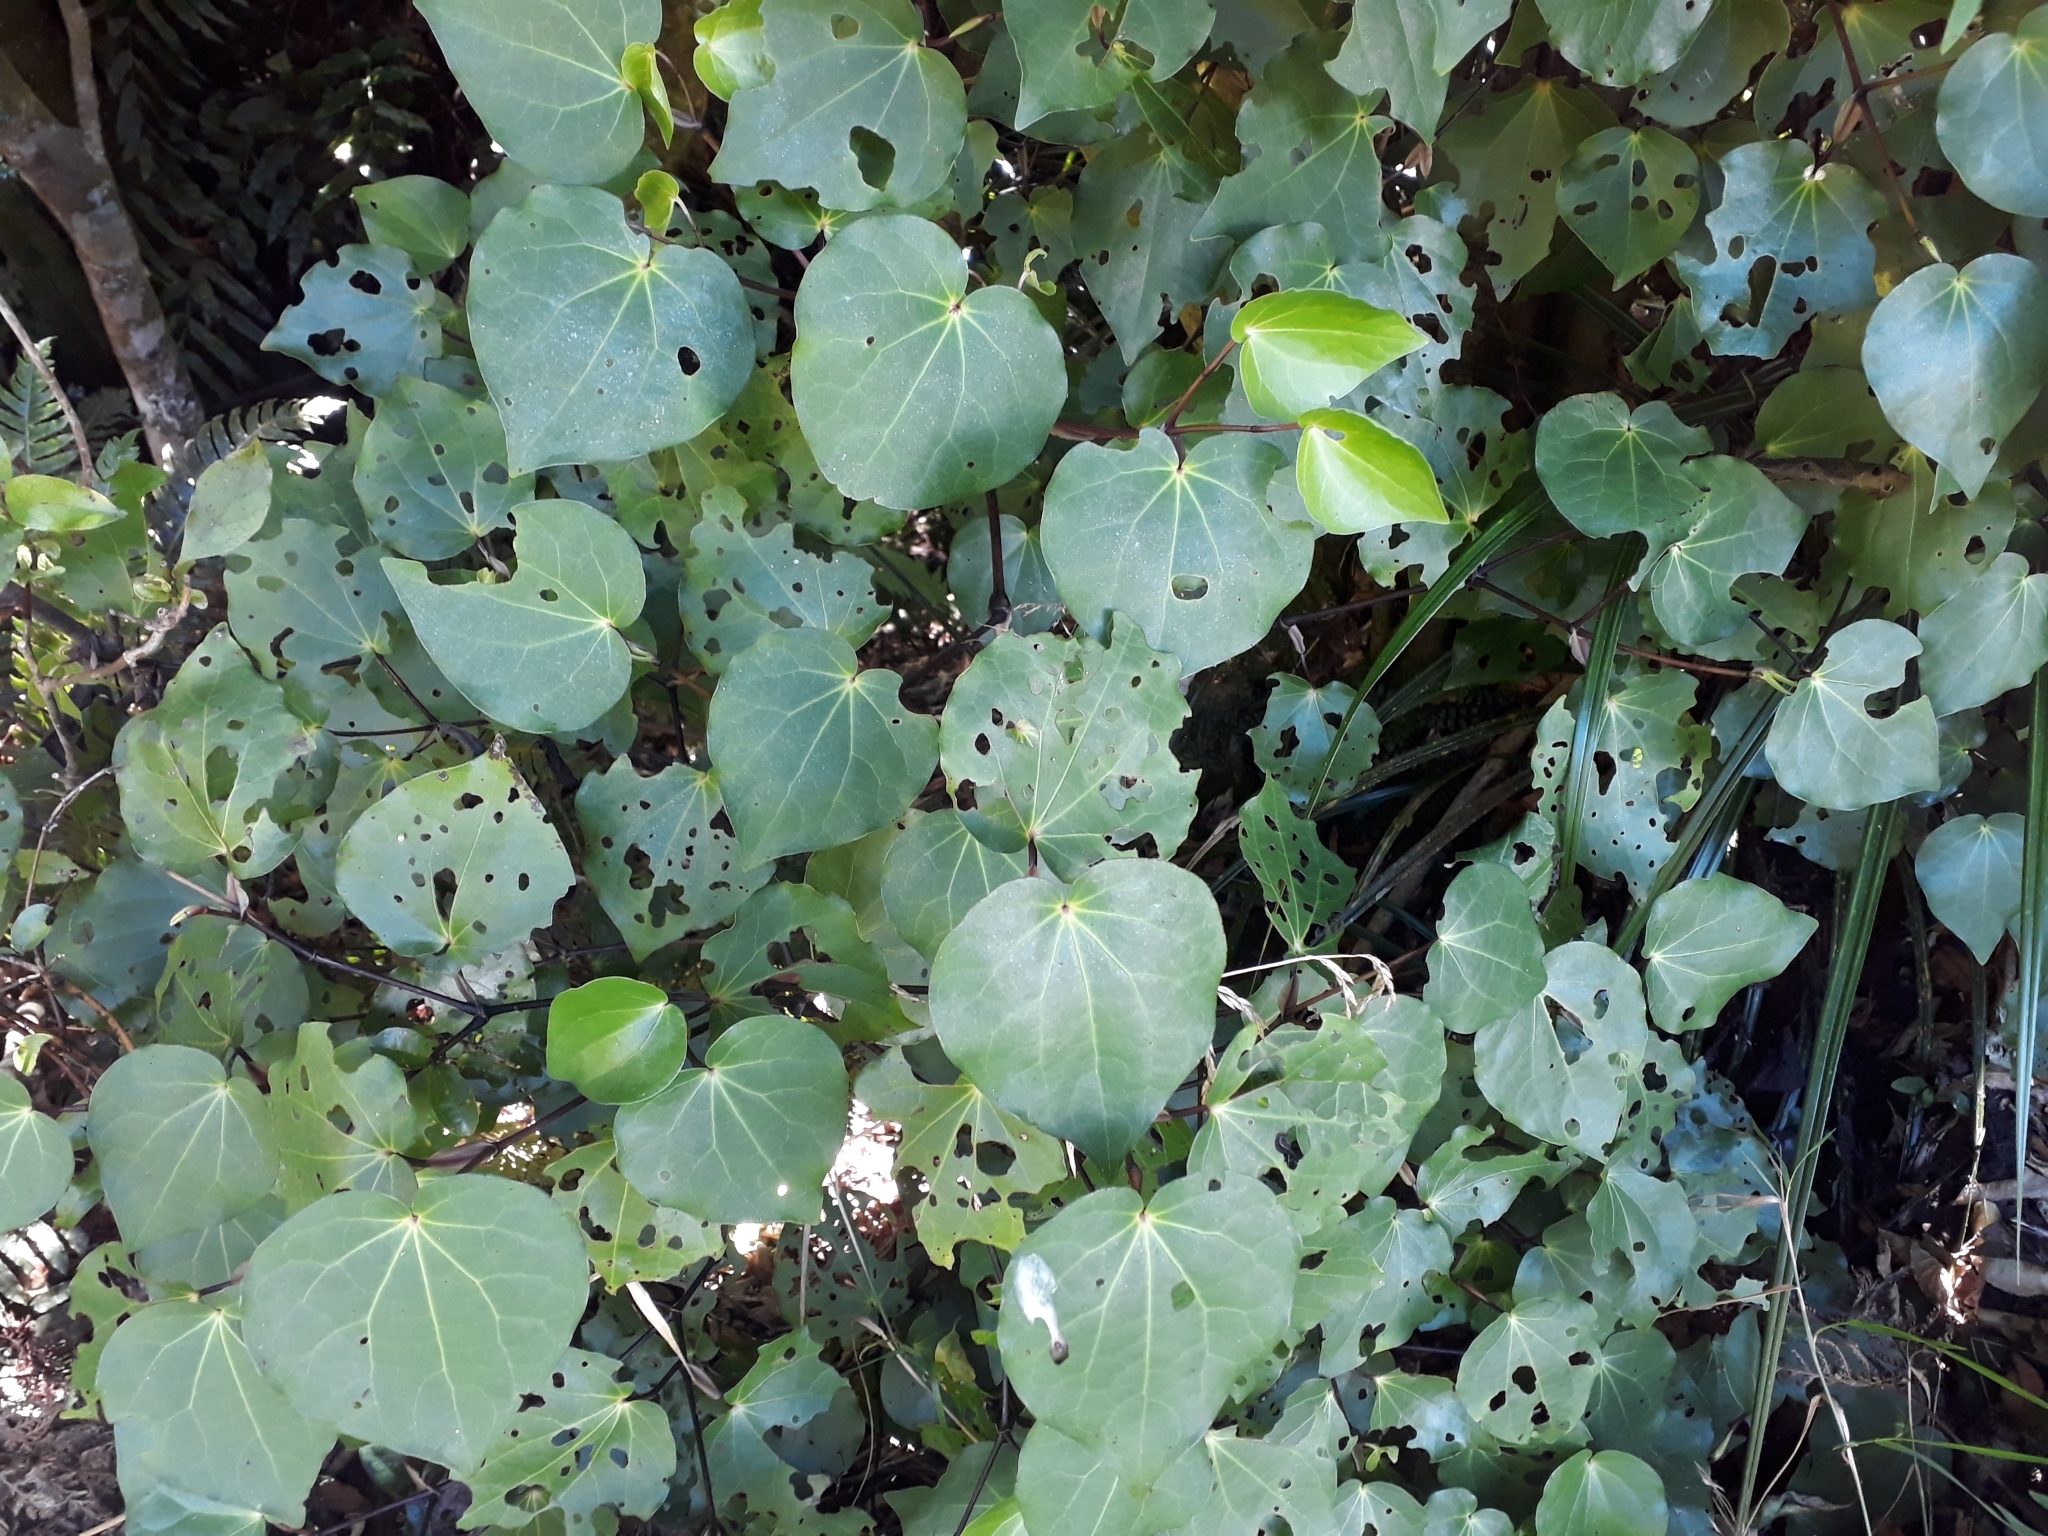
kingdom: Plantae
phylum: Tracheophyta
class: Magnoliopsida
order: Piperales
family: Piperaceae
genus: Macropiper
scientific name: Macropiper excelsum
